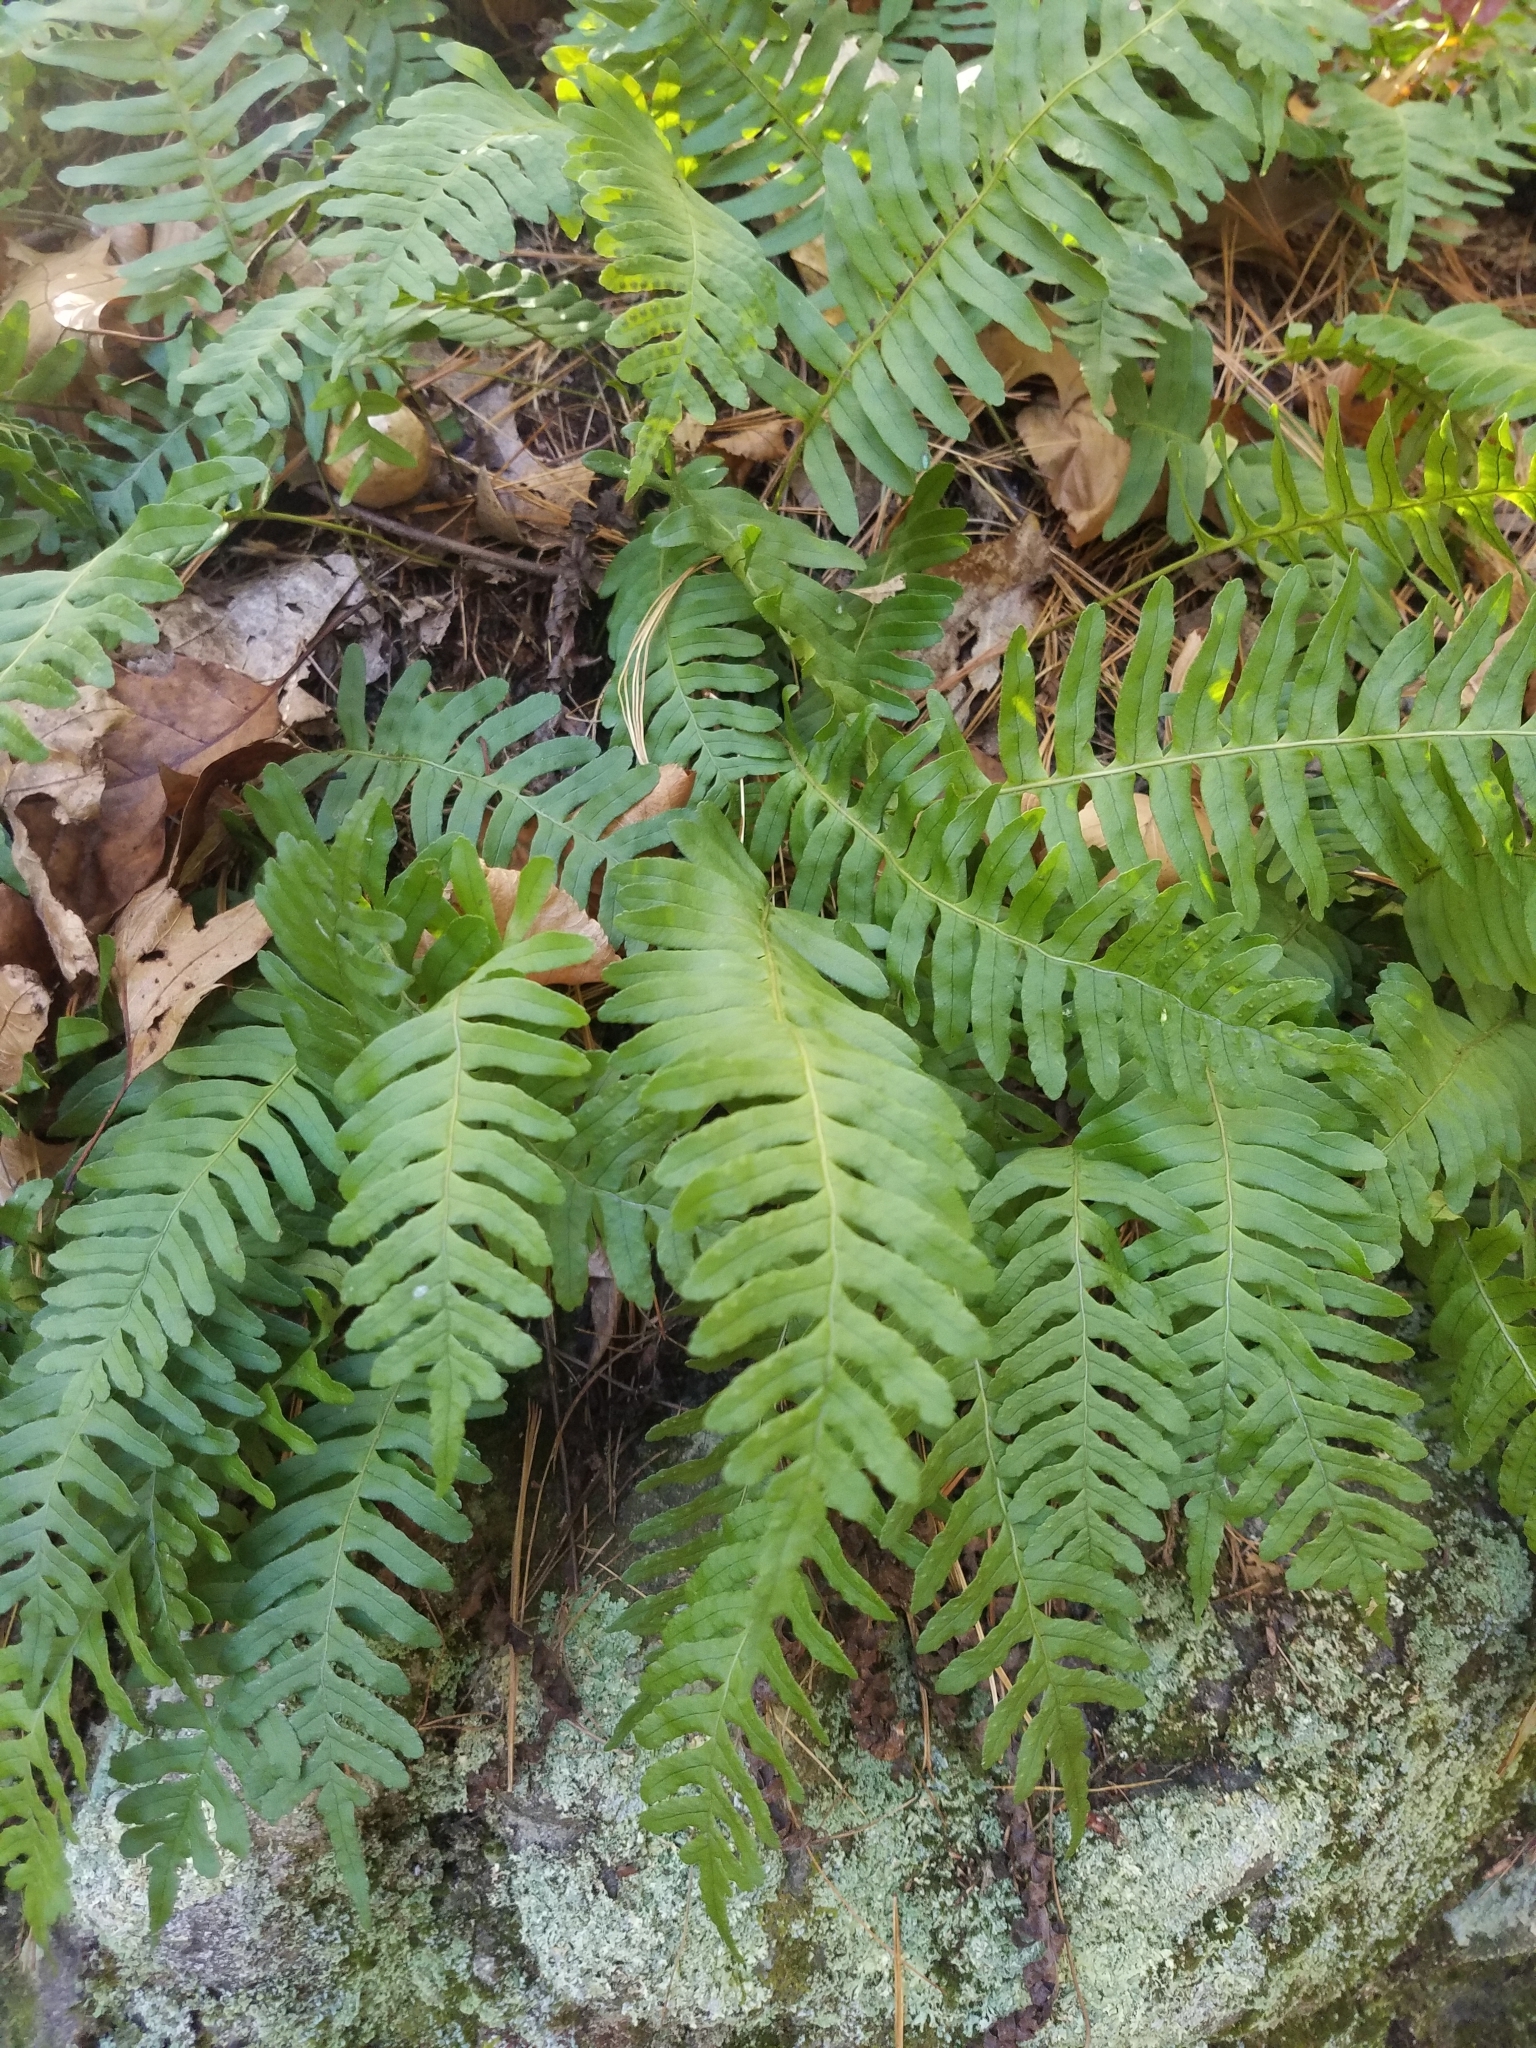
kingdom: Plantae
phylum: Tracheophyta
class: Polypodiopsida
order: Polypodiales
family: Polypodiaceae
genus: Polypodium
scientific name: Polypodium virginianum
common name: American wall fern
